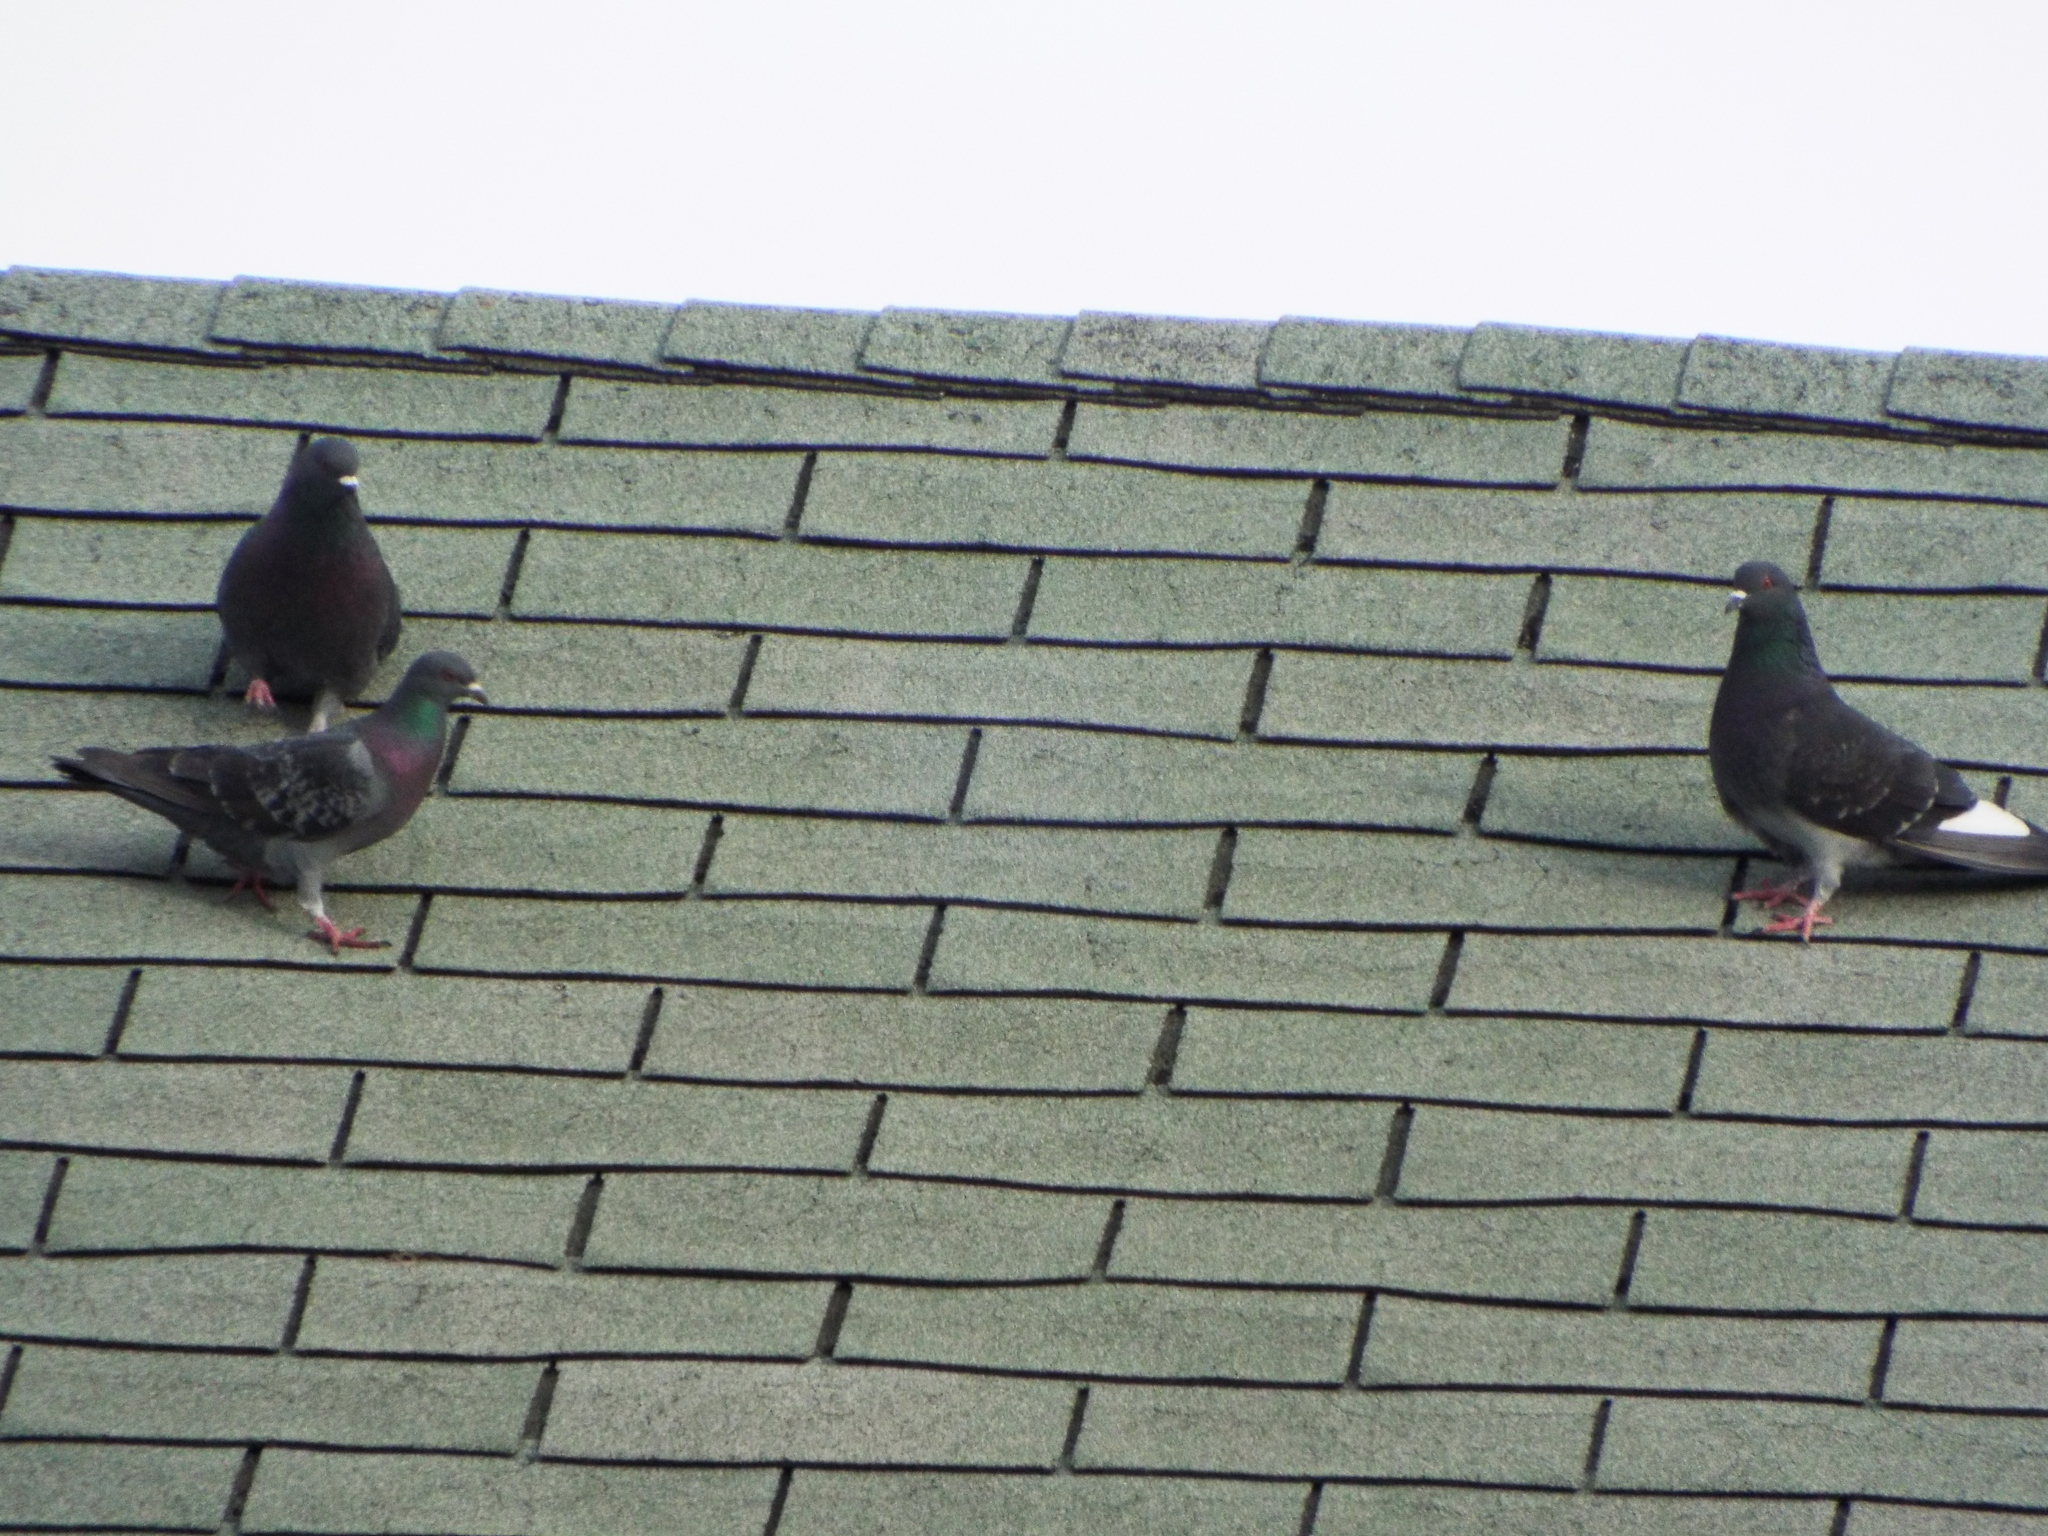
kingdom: Animalia
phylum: Chordata
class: Aves
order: Columbiformes
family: Columbidae
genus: Columba
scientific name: Columba livia
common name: Rock pigeon
